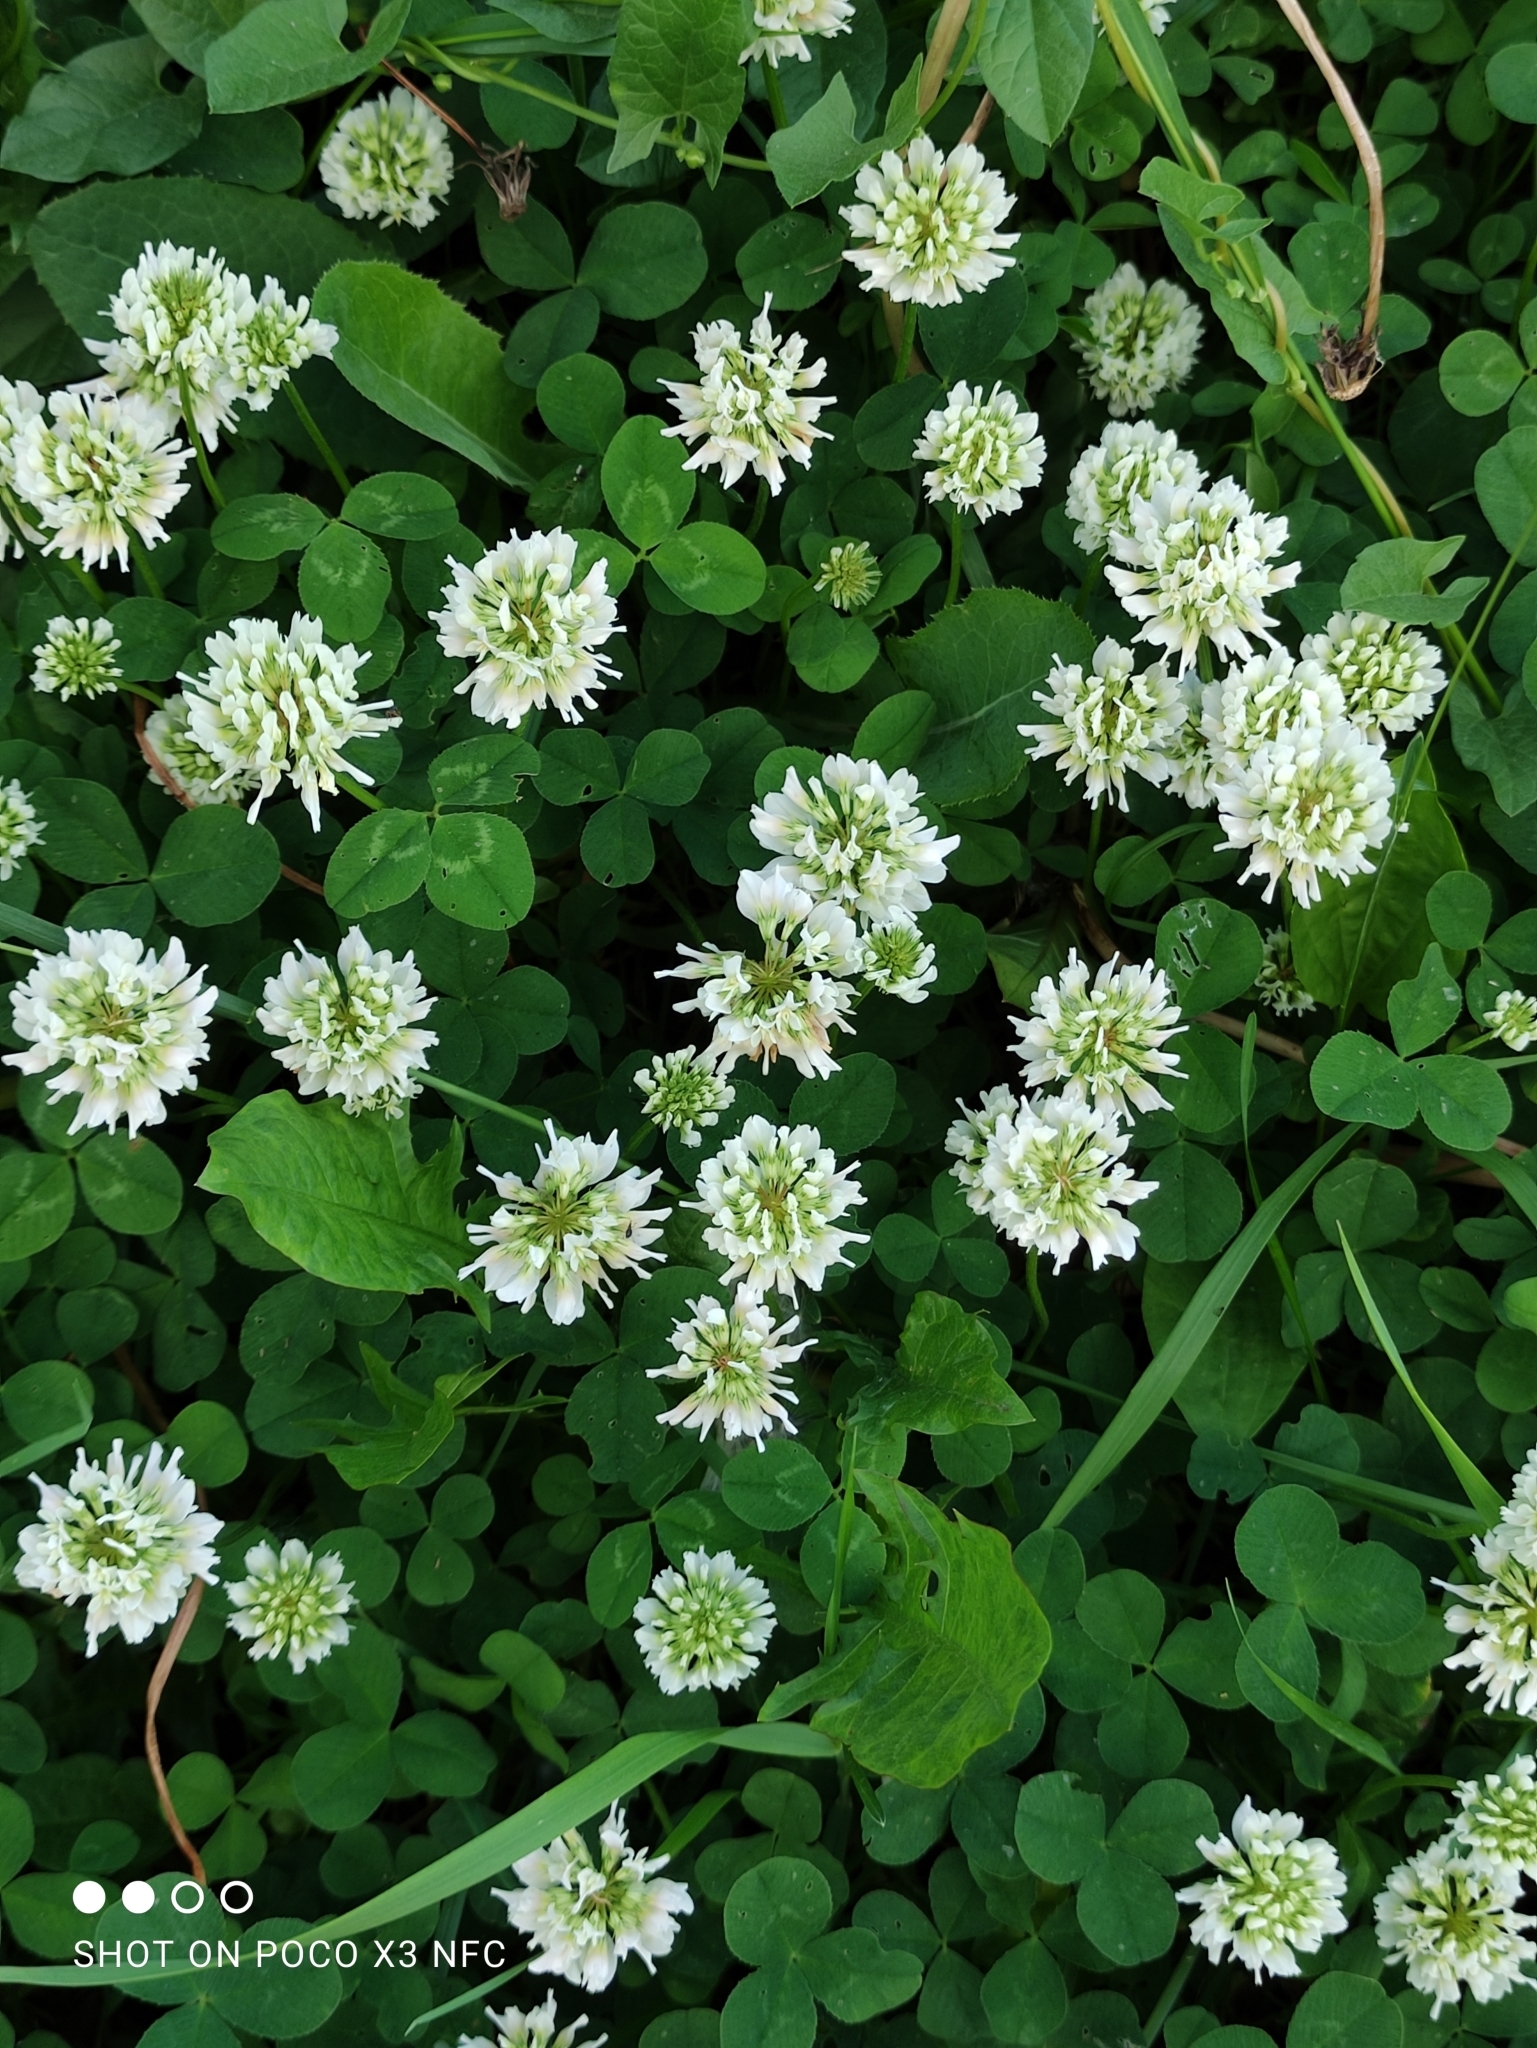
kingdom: Plantae
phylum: Tracheophyta
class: Magnoliopsida
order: Fabales
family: Fabaceae
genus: Trifolium
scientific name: Trifolium repens
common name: White clover
